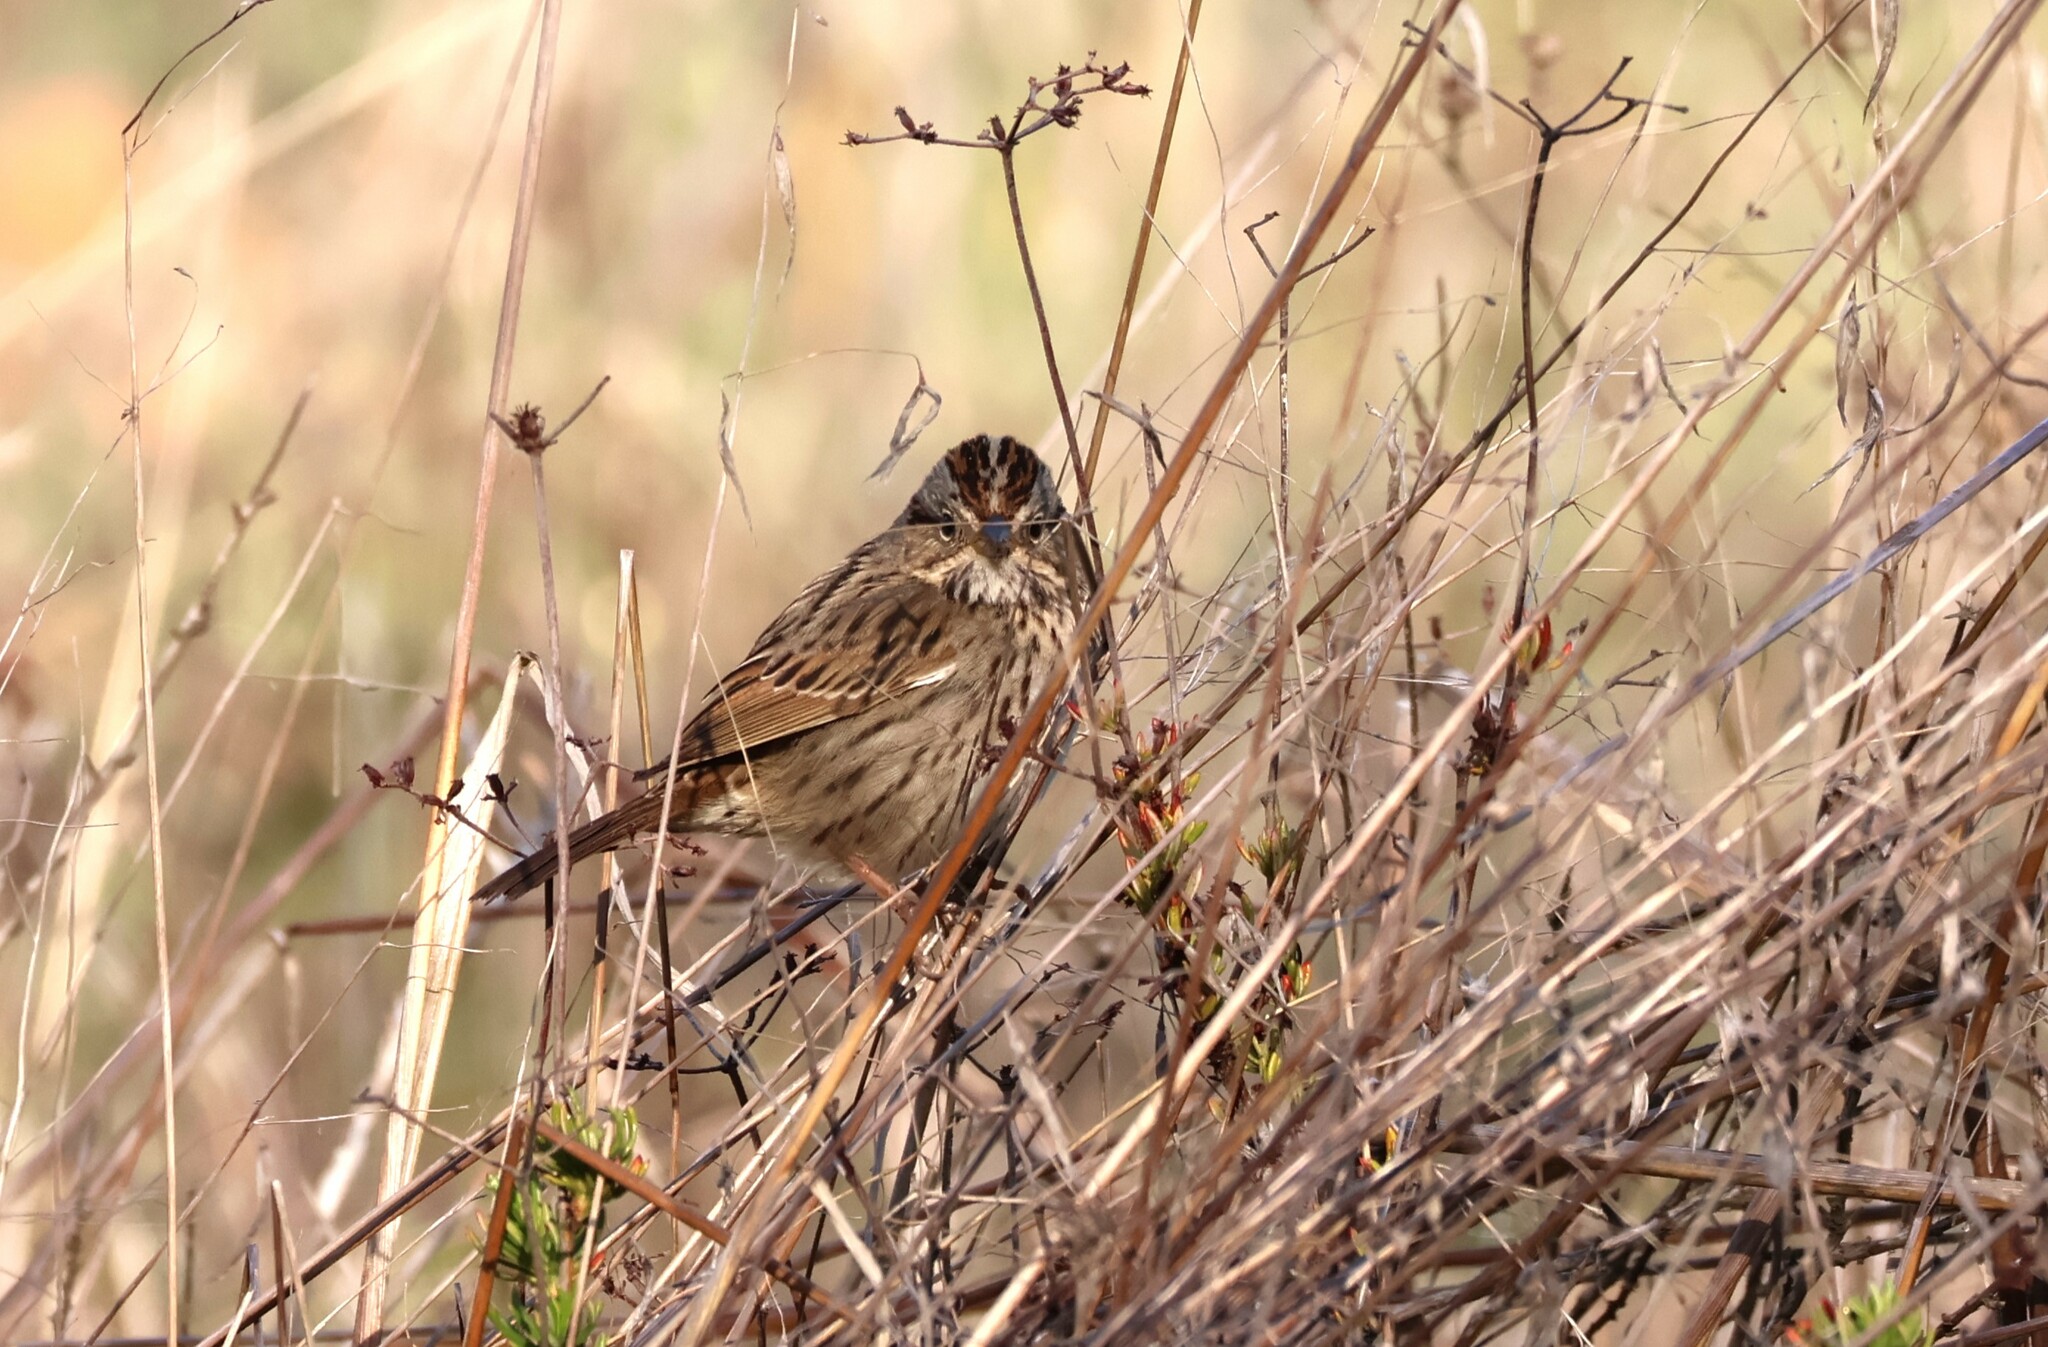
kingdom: Animalia
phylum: Chordata
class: Aves
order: Passeriformes
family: Passerellidae
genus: Melospiza
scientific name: Melospiza lincolnii
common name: Lincoln's sparrow
